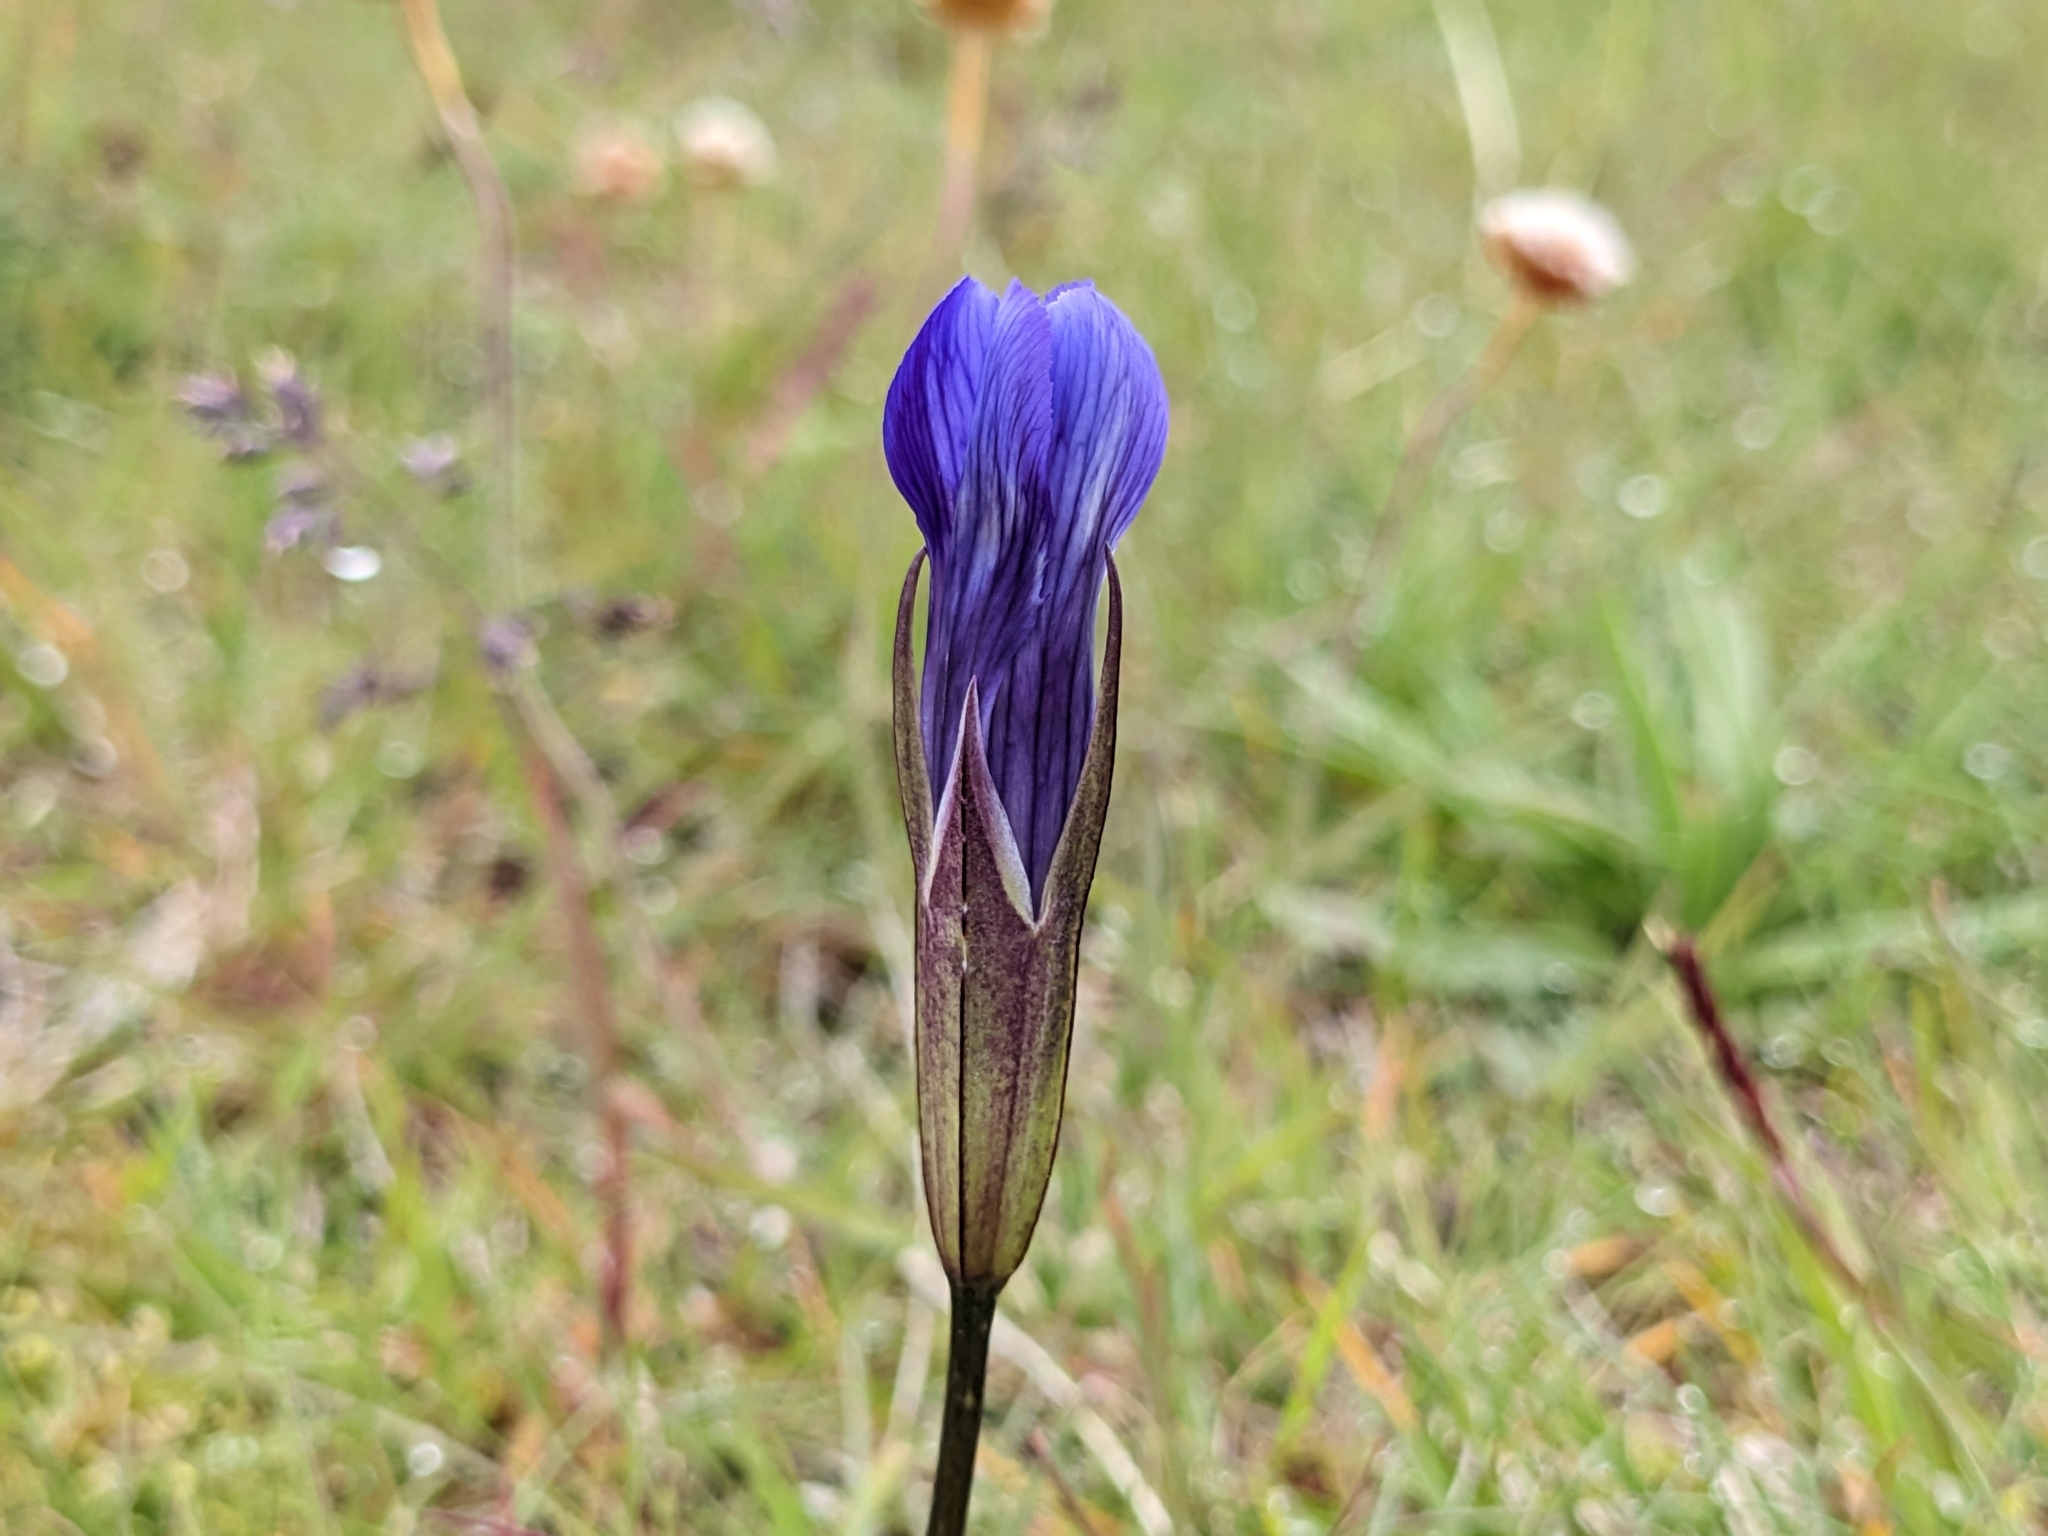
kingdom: Plantae
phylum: Tracheophyta
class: Magnoliopsida
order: Gentianales
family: Gentianaceae
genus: Gentianopsis
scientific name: Gentianopsis detonsa
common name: Fringed-gentian
